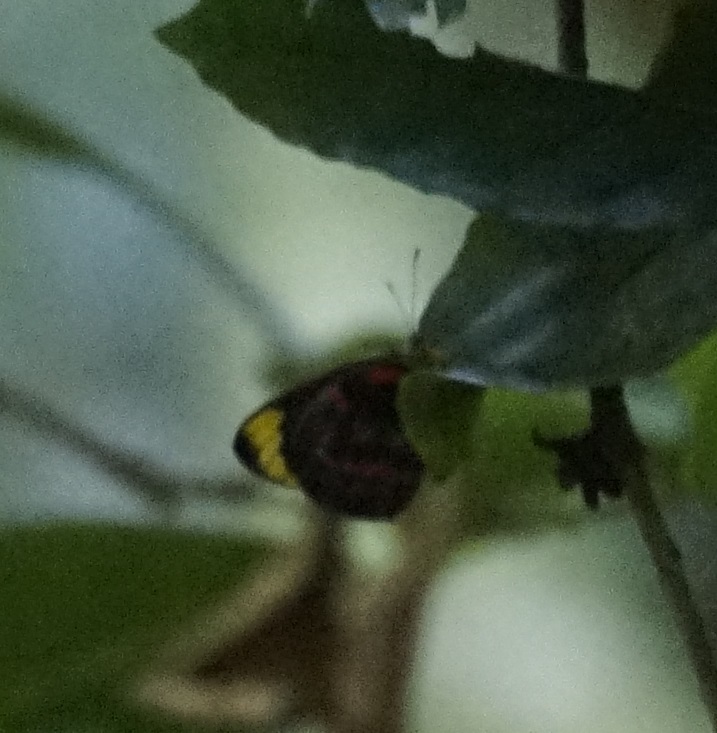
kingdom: Animalia
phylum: Arthropoda
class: Insecta
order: Lepidoptera
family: Pieridae
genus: Delias
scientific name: Delias nigrina
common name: Black jezebel
